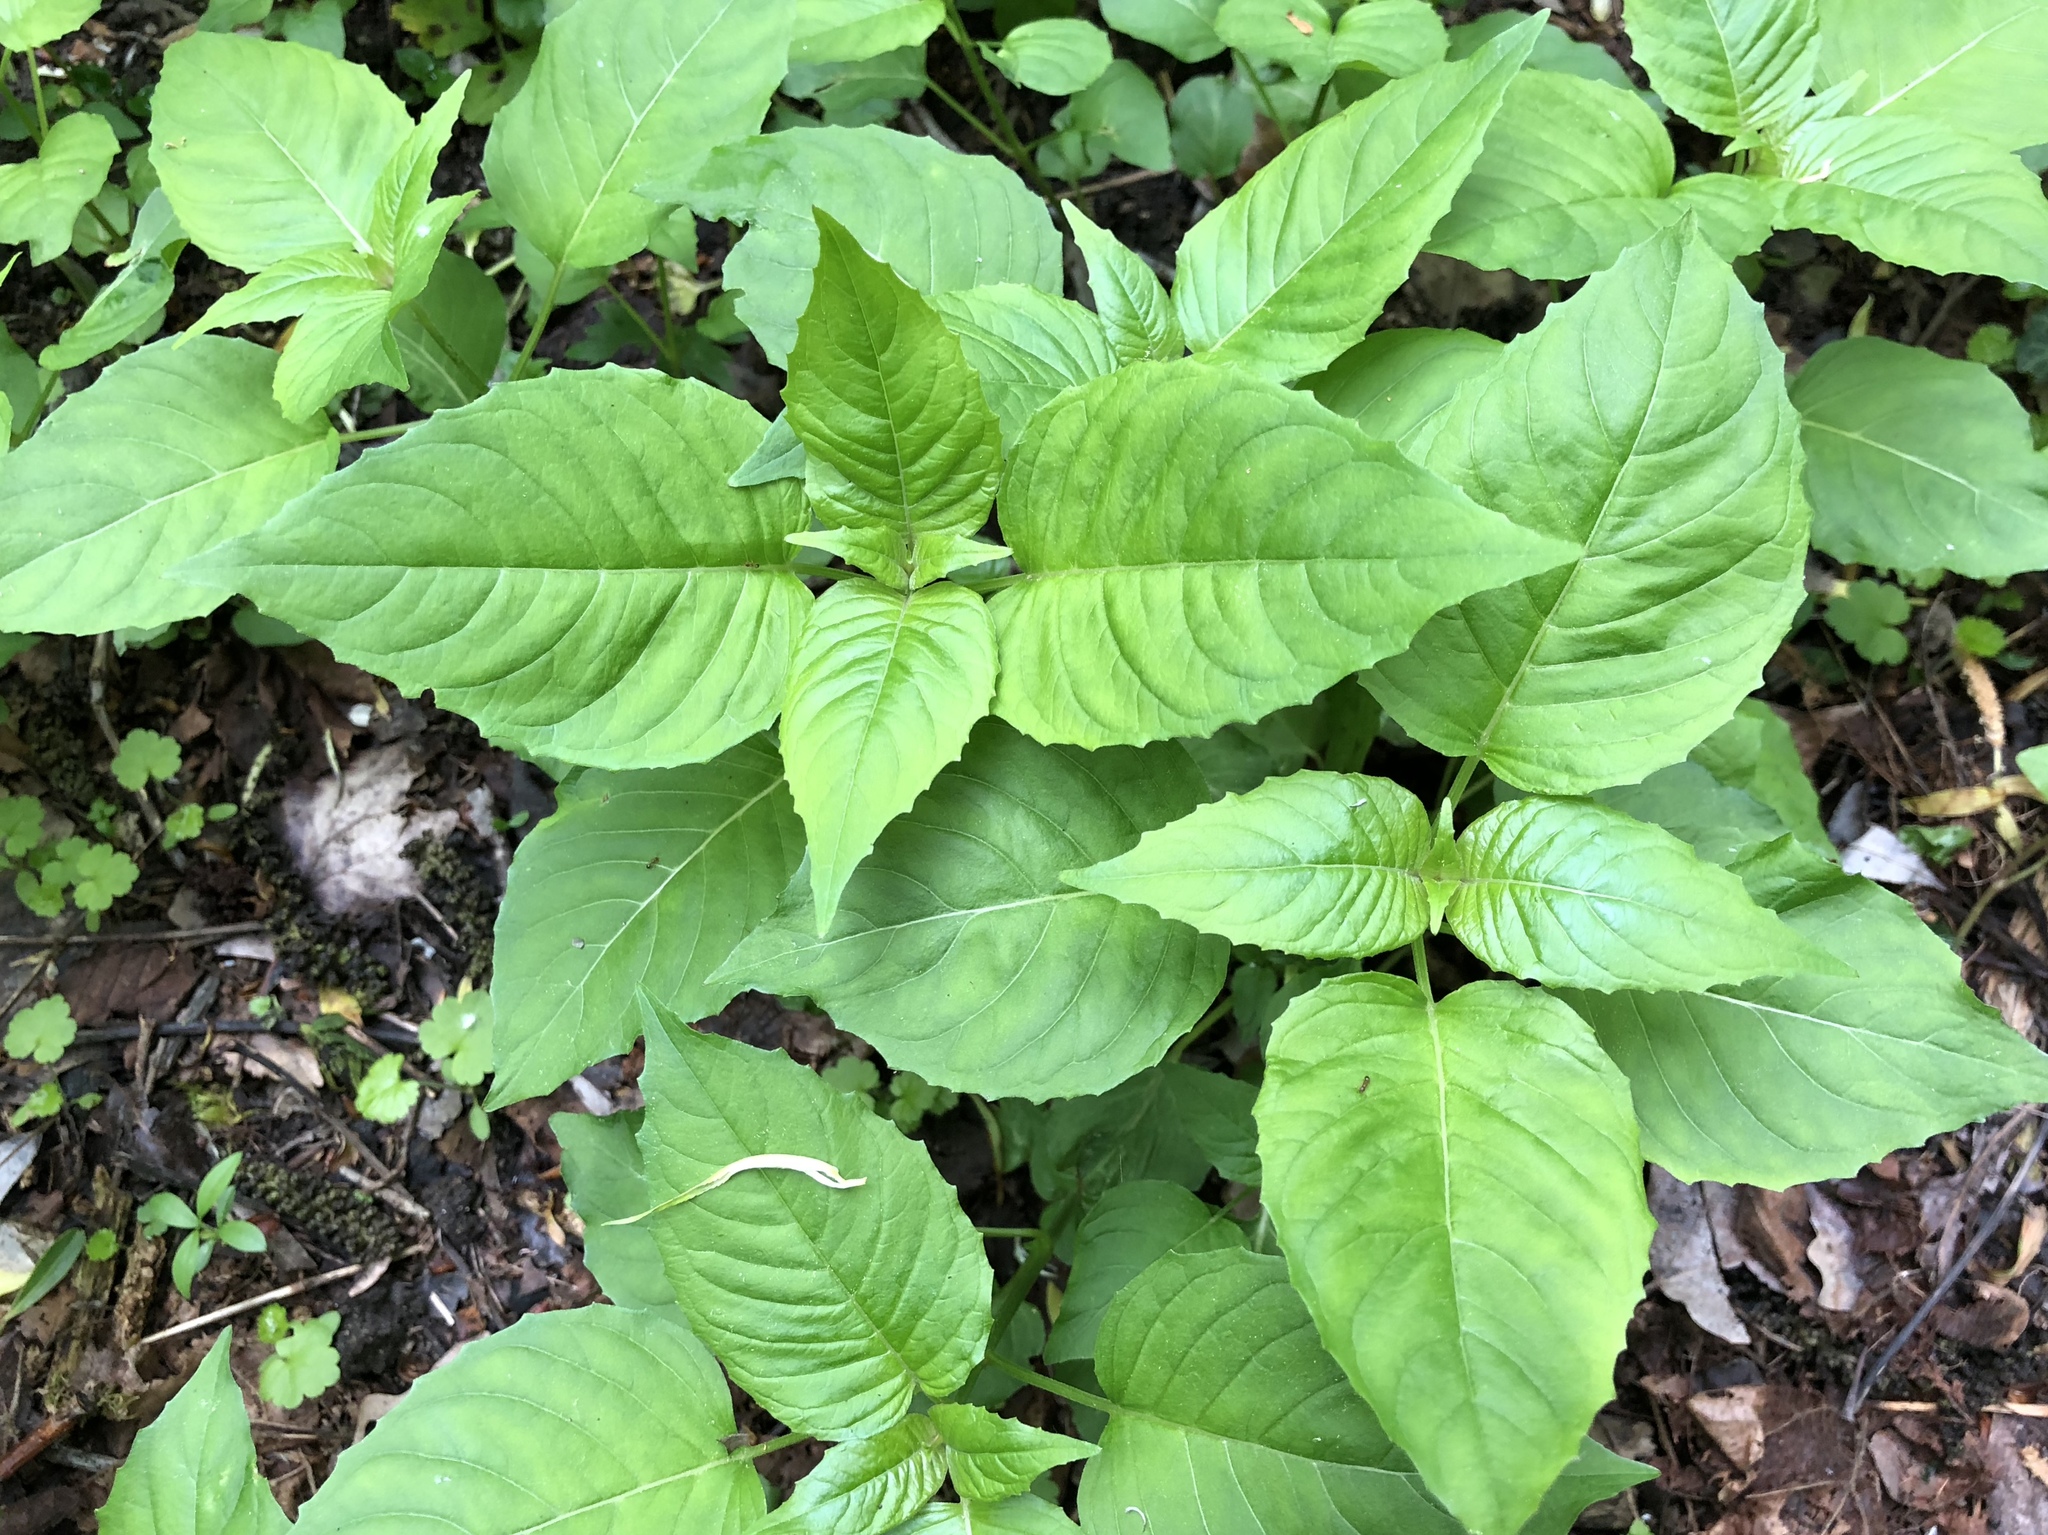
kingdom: Plantae
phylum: Tracheophyta
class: Magnoliopsida
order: Myrtales
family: Onagraceae
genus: Circaea
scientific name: Circaea lutetiana
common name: Enchanter's-nightshade
